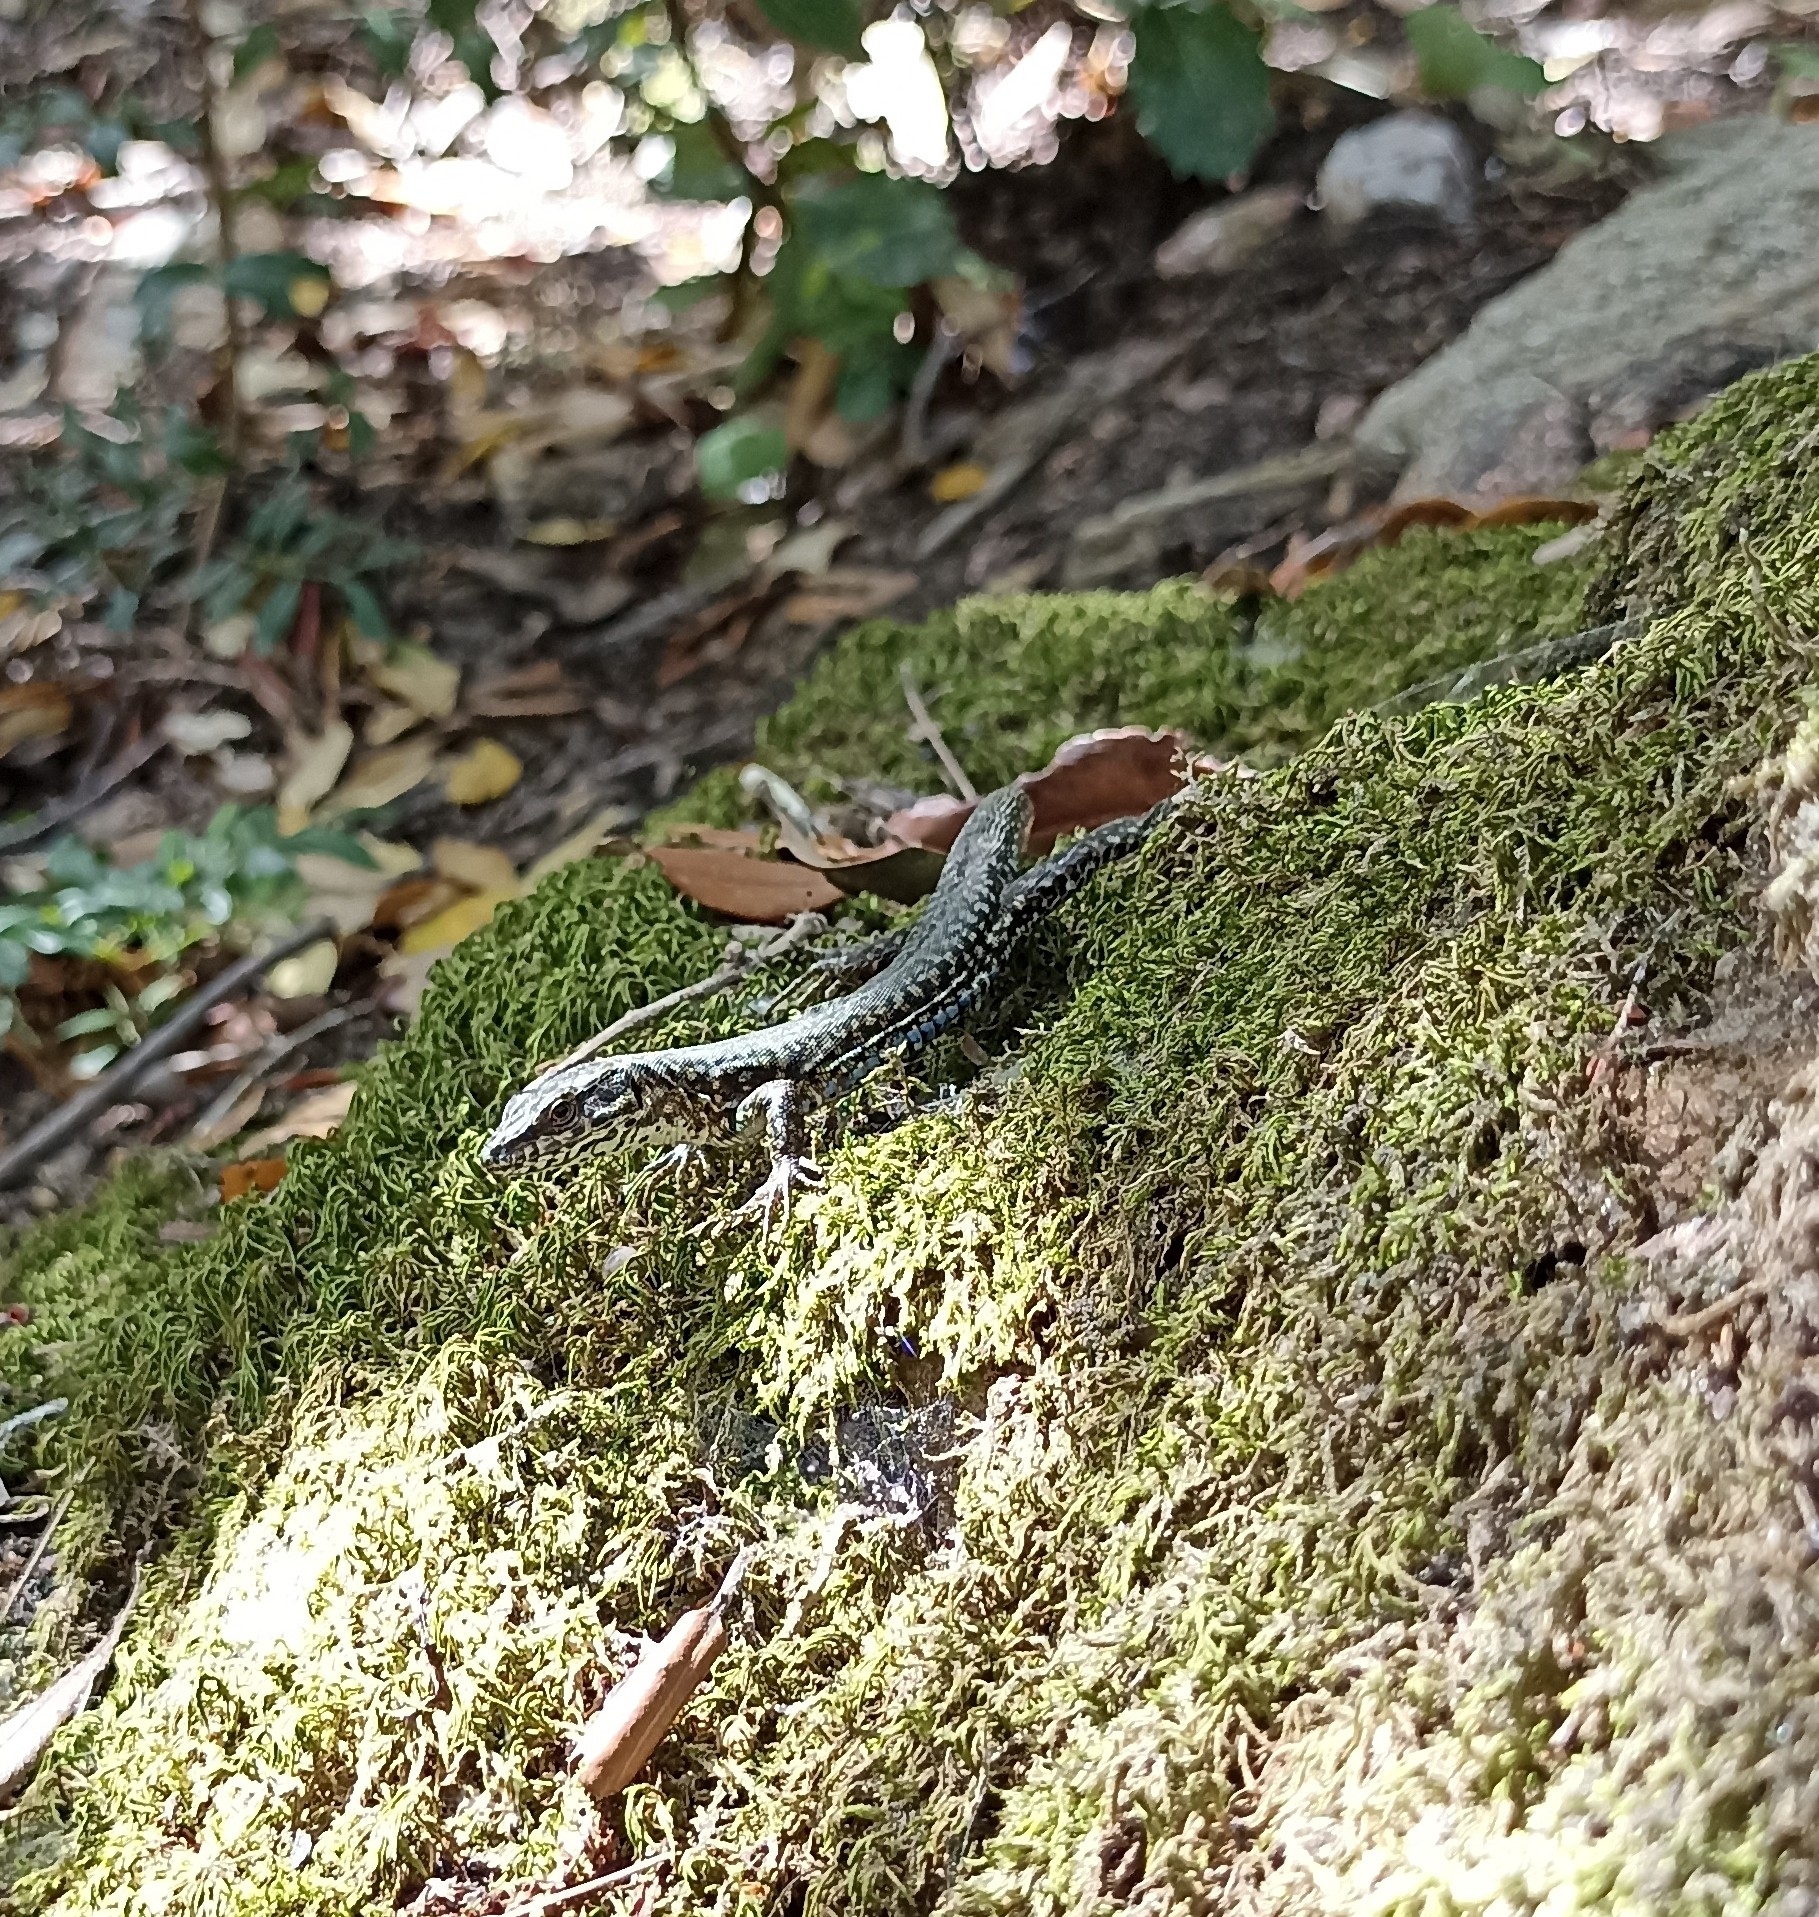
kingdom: Animalia
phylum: Chordata
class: Squamata
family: Lacertidae
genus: Podarcis
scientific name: Podarcis muralis
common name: Common wall lizard
